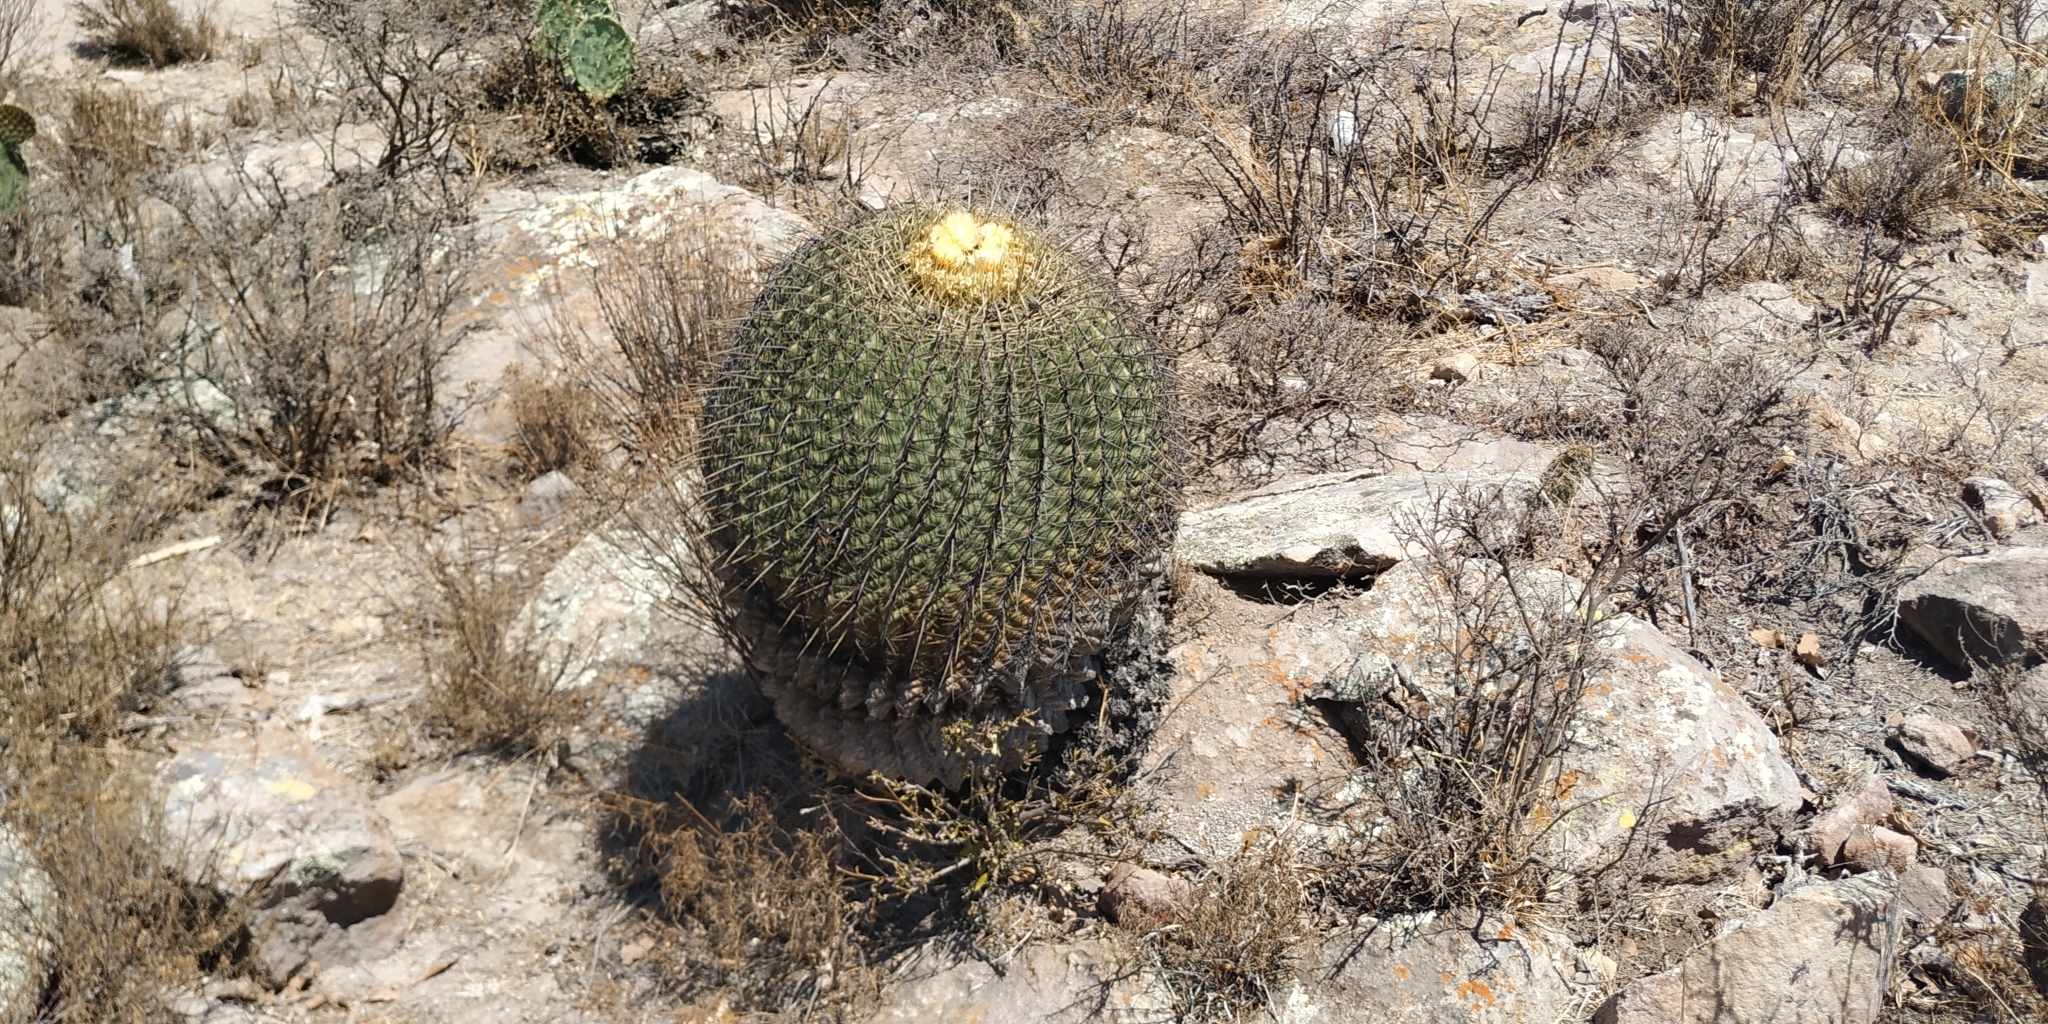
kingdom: Plantae
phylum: Tracheophyta
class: Magnoliopsida
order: Caryophyllales
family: Cactaceae
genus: Bisnaga
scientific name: Bisnaga histrix
